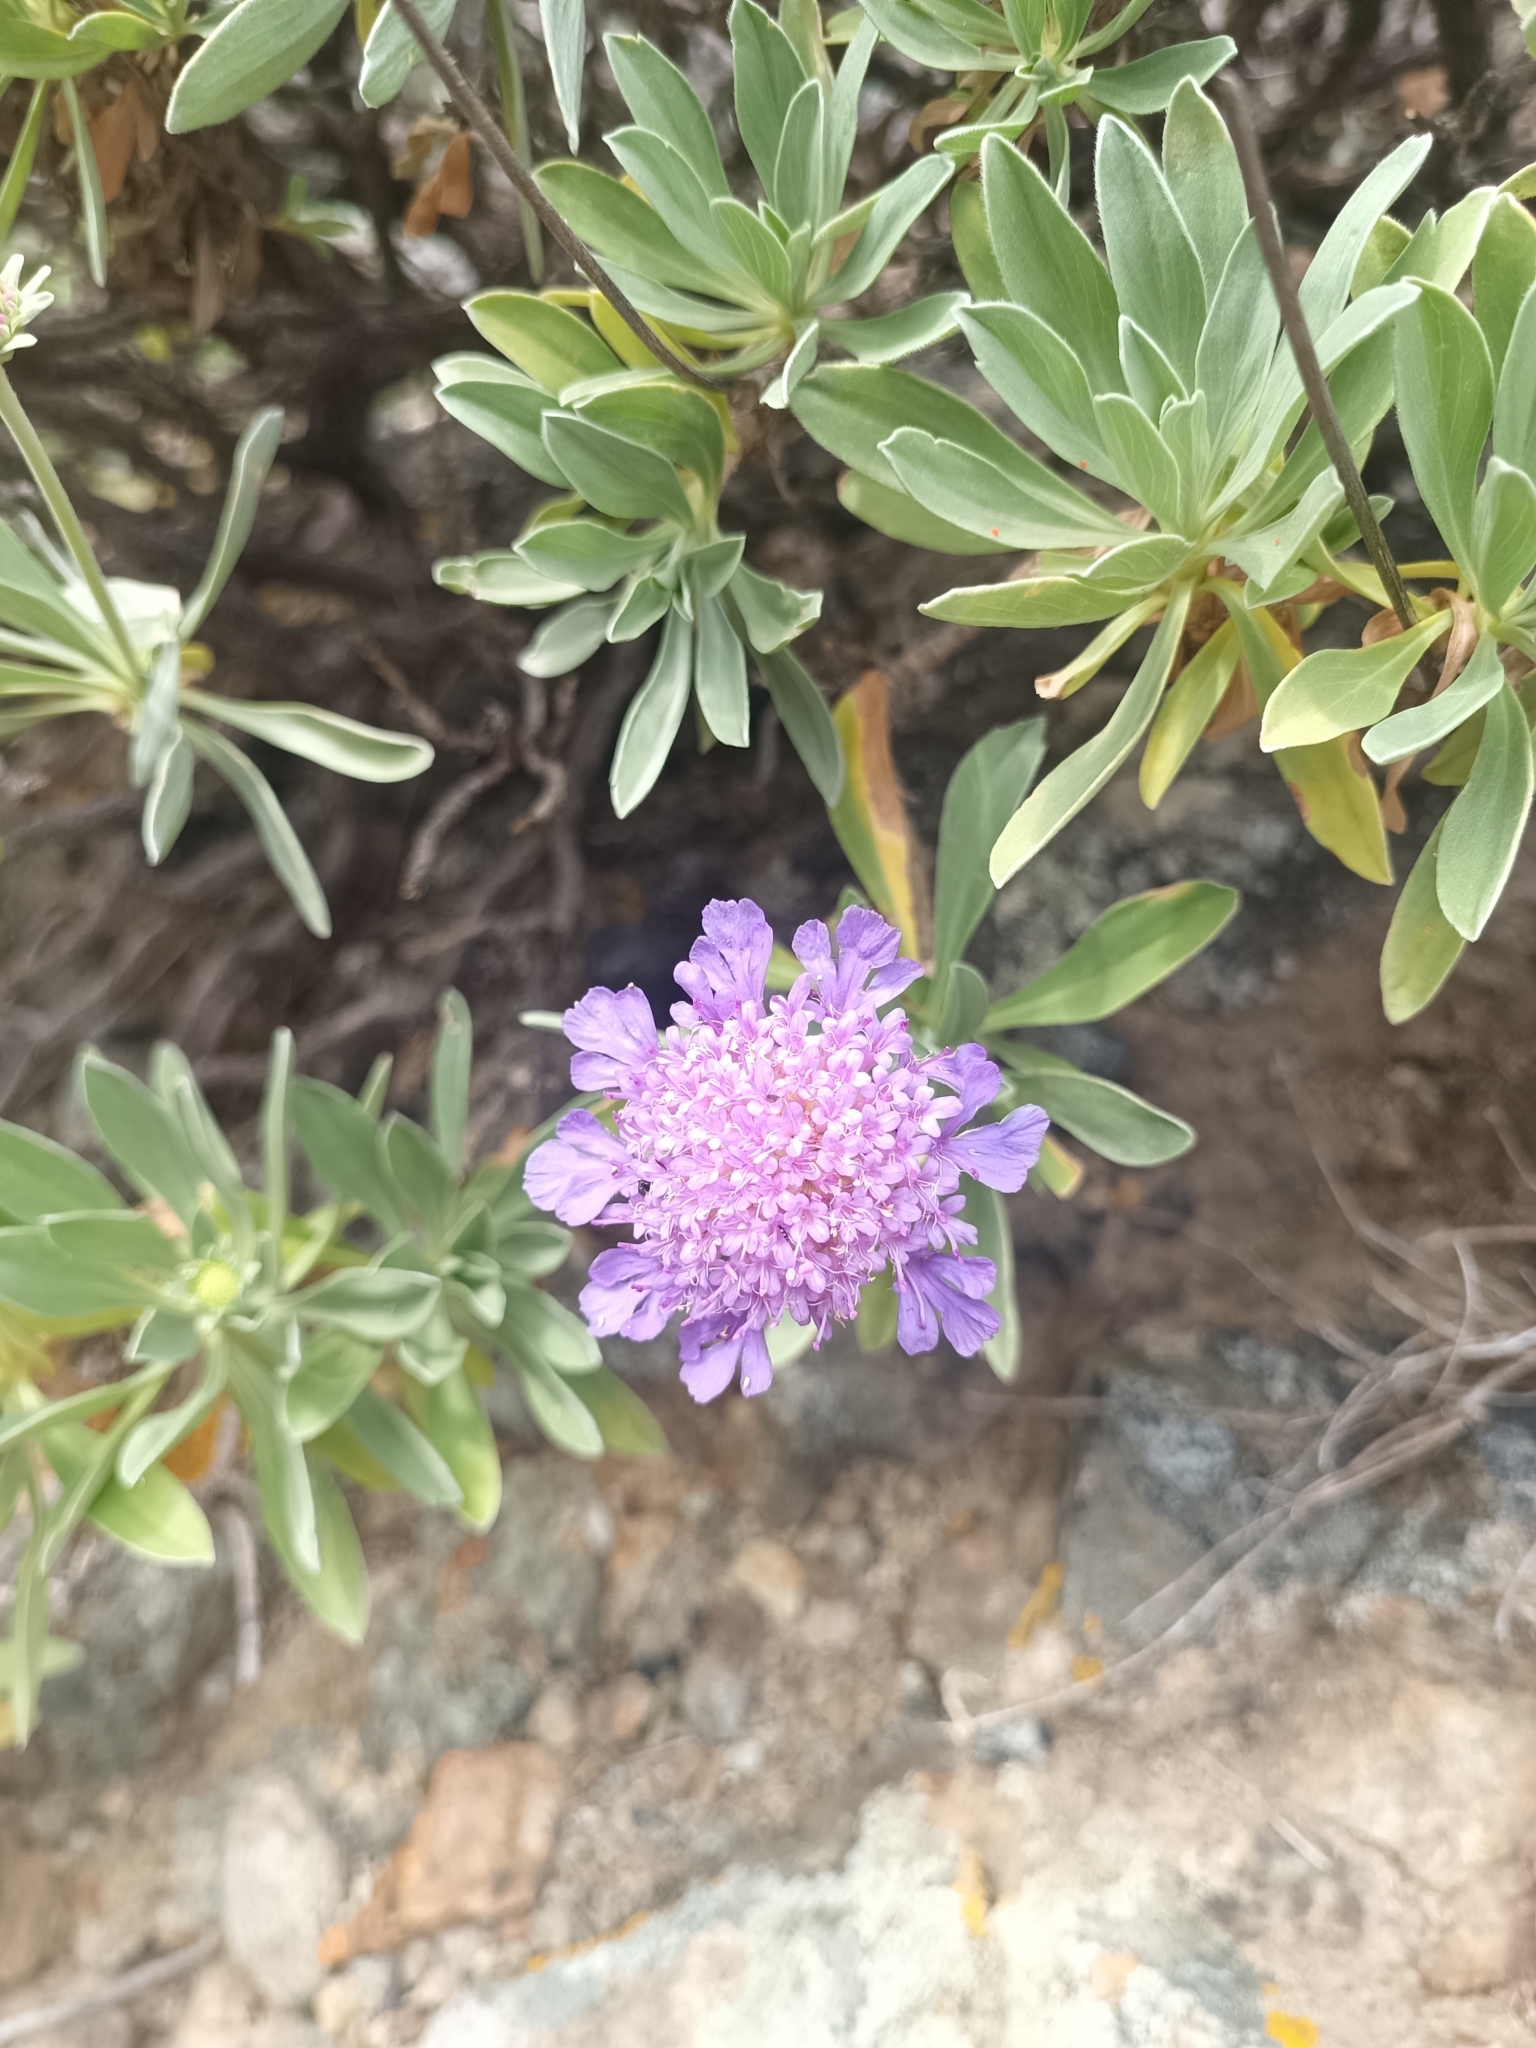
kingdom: Plantae
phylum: Tracheophyta
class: Magnoliopsida
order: Dipsacales
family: Caprifoliaceae
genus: Lomelosia
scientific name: Lomelosia cretica
